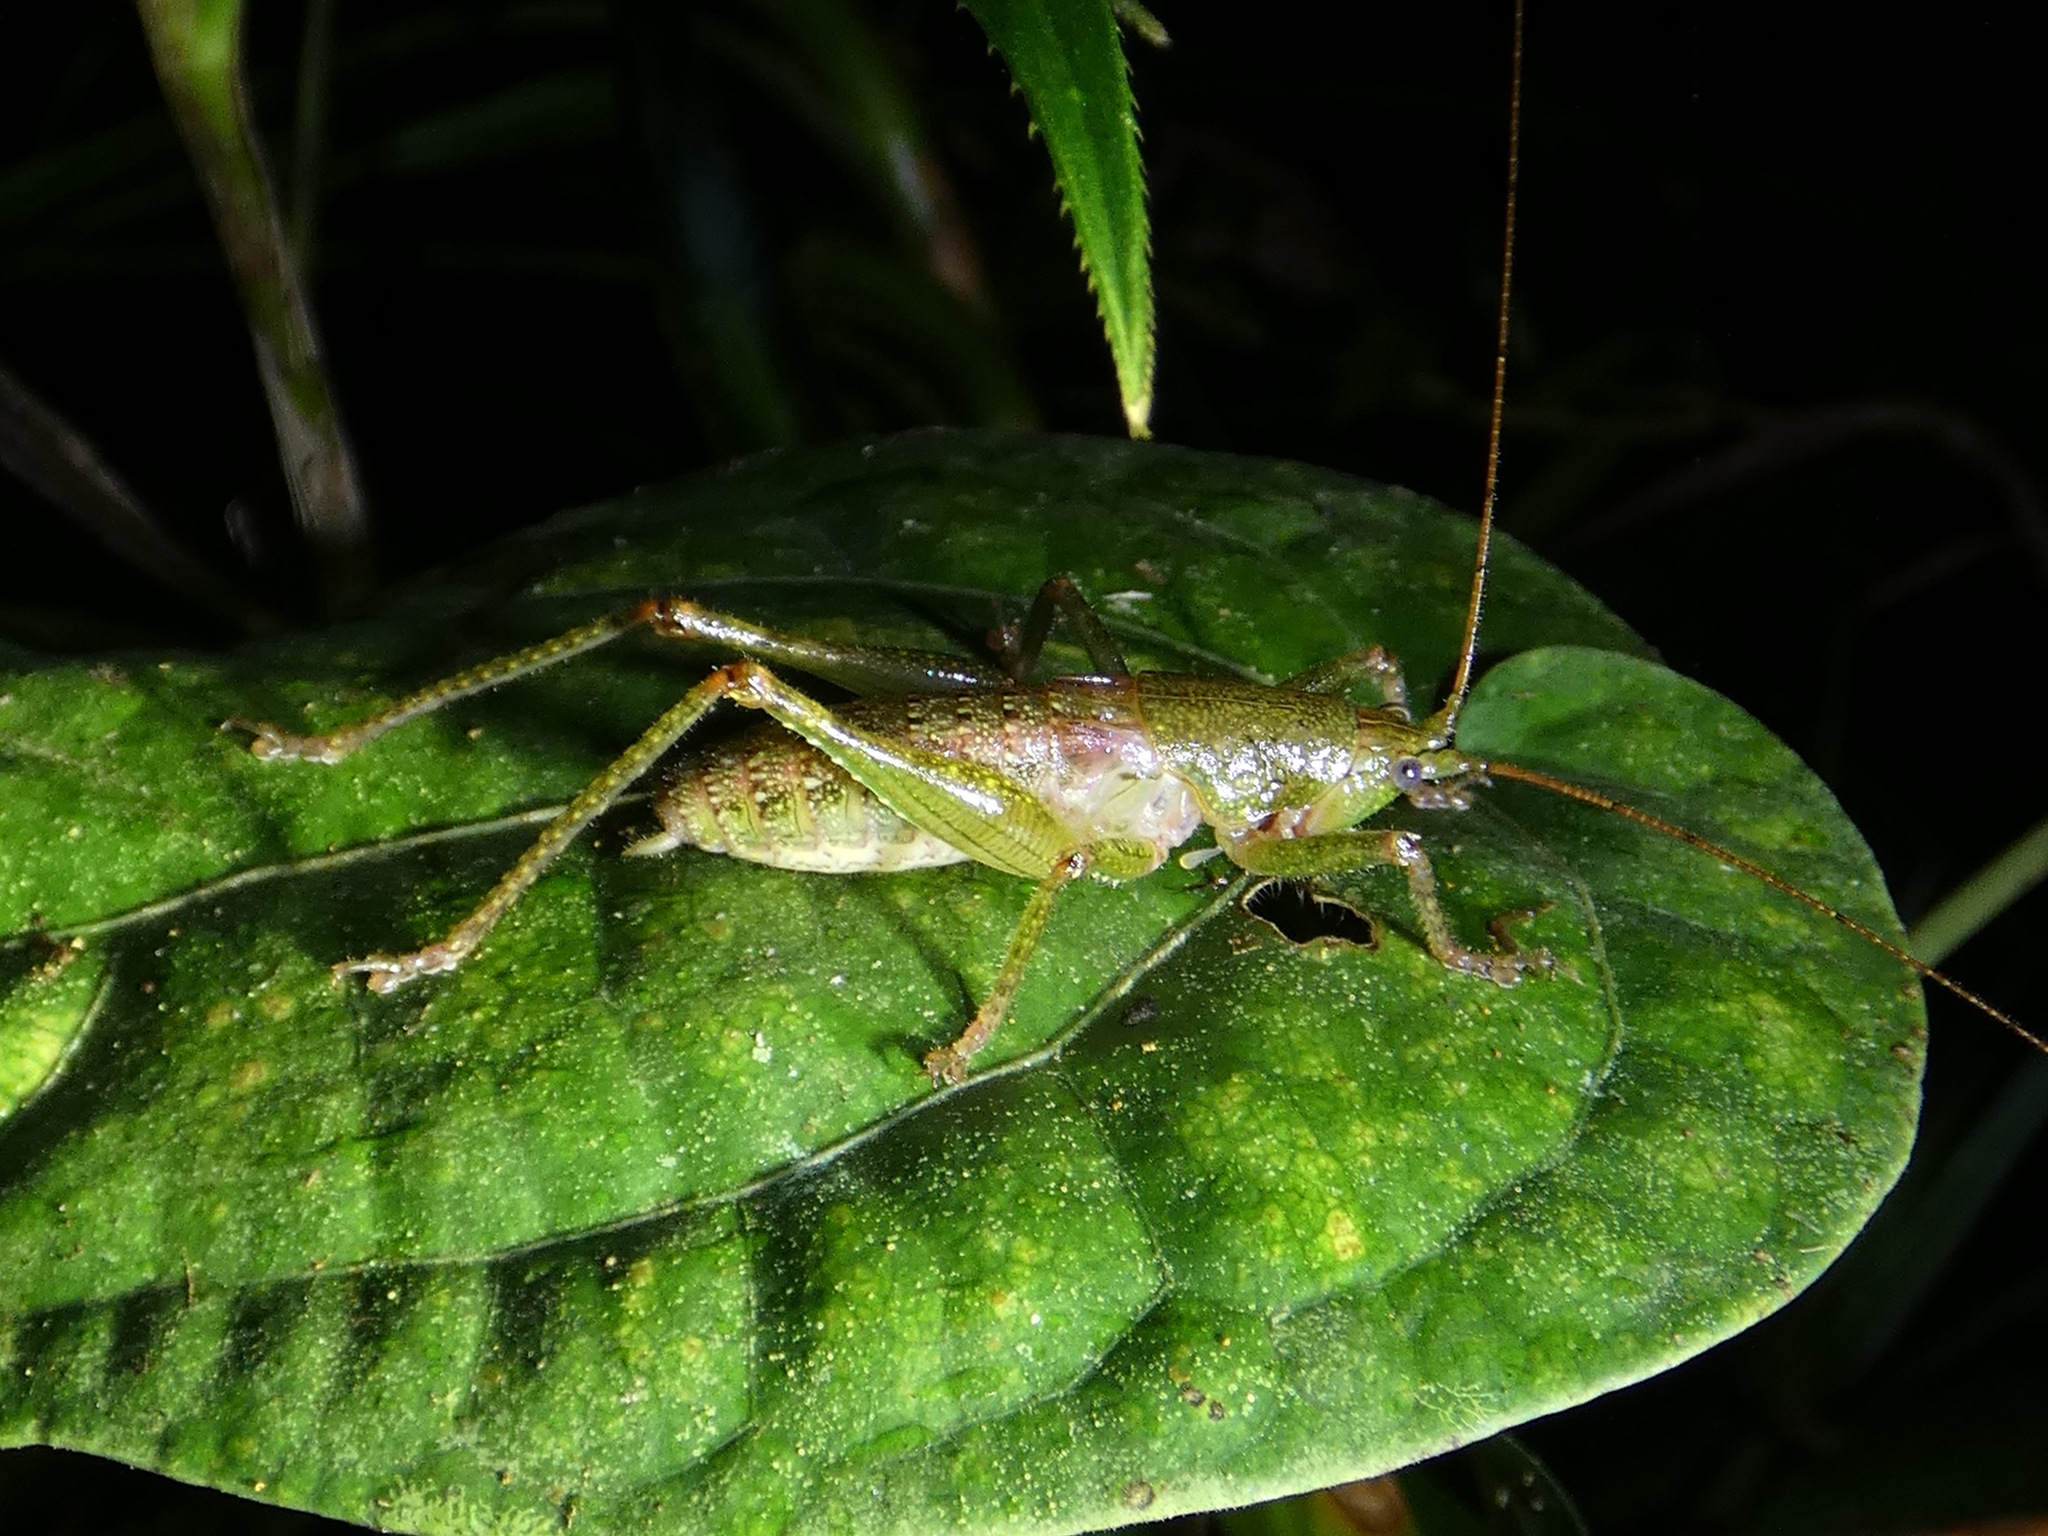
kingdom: Animalia
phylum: Arthropoda
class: Insecta
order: Orthoptera
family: Tettigoniidae
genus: Austrosalomona
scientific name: Austrosalomona destructor
